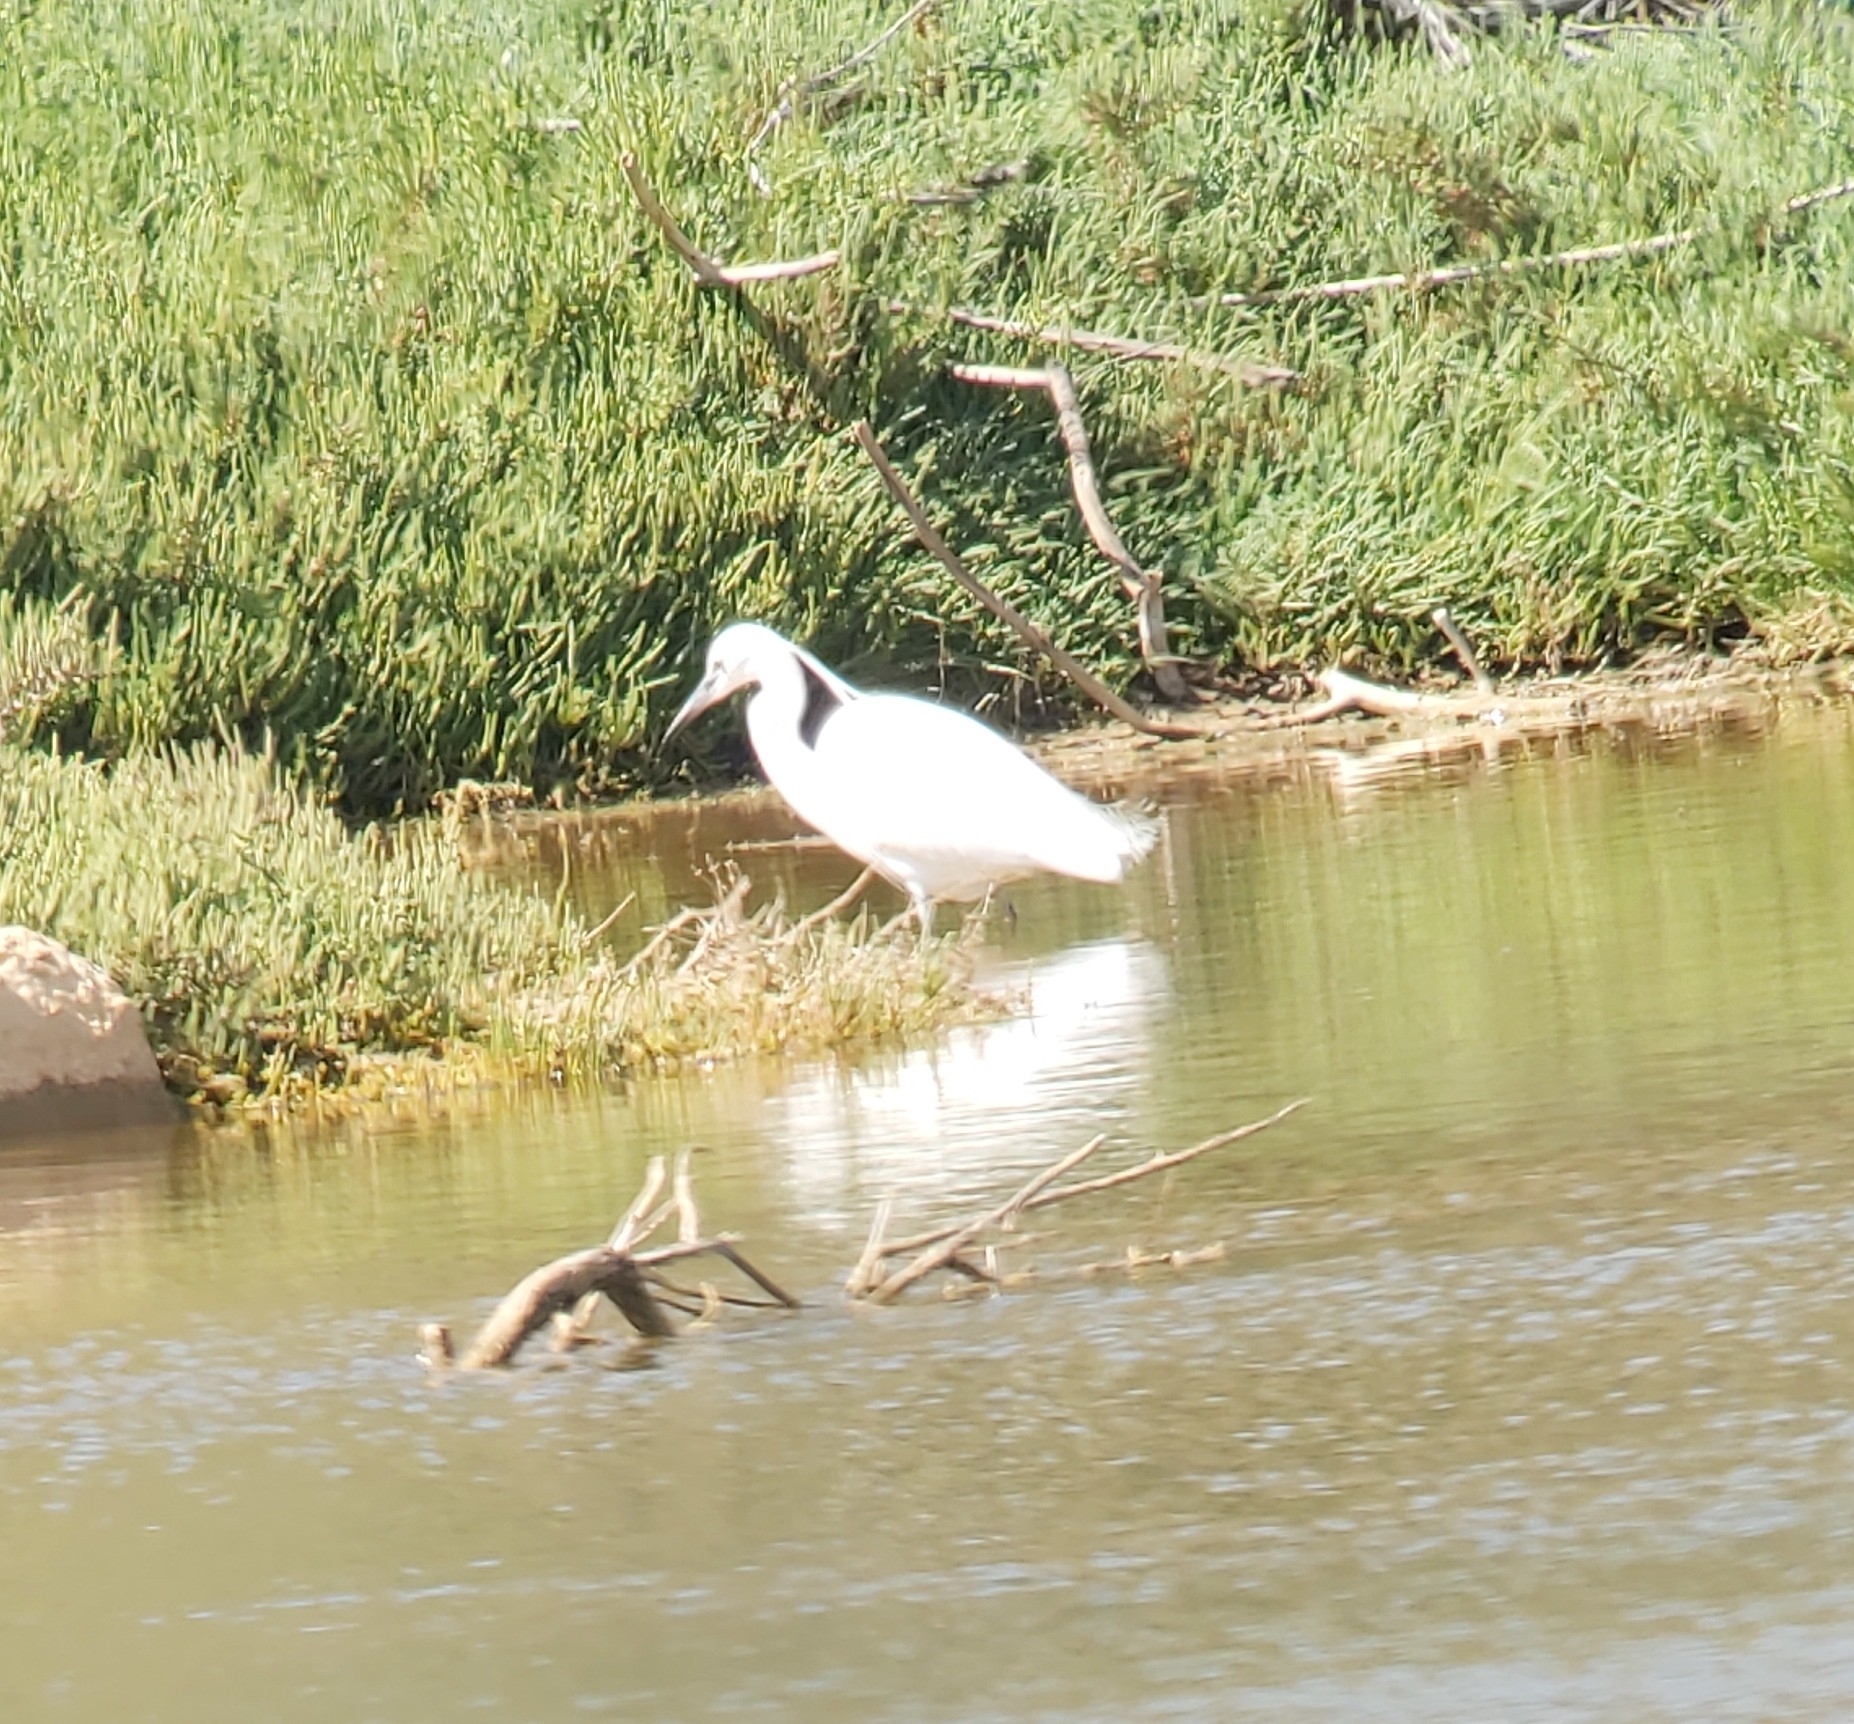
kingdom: Animalia
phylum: Chordata
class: Aves
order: Pelecaniformes
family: Ardeidae
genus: Egretta
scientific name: Egretta garzetta
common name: Little egret
